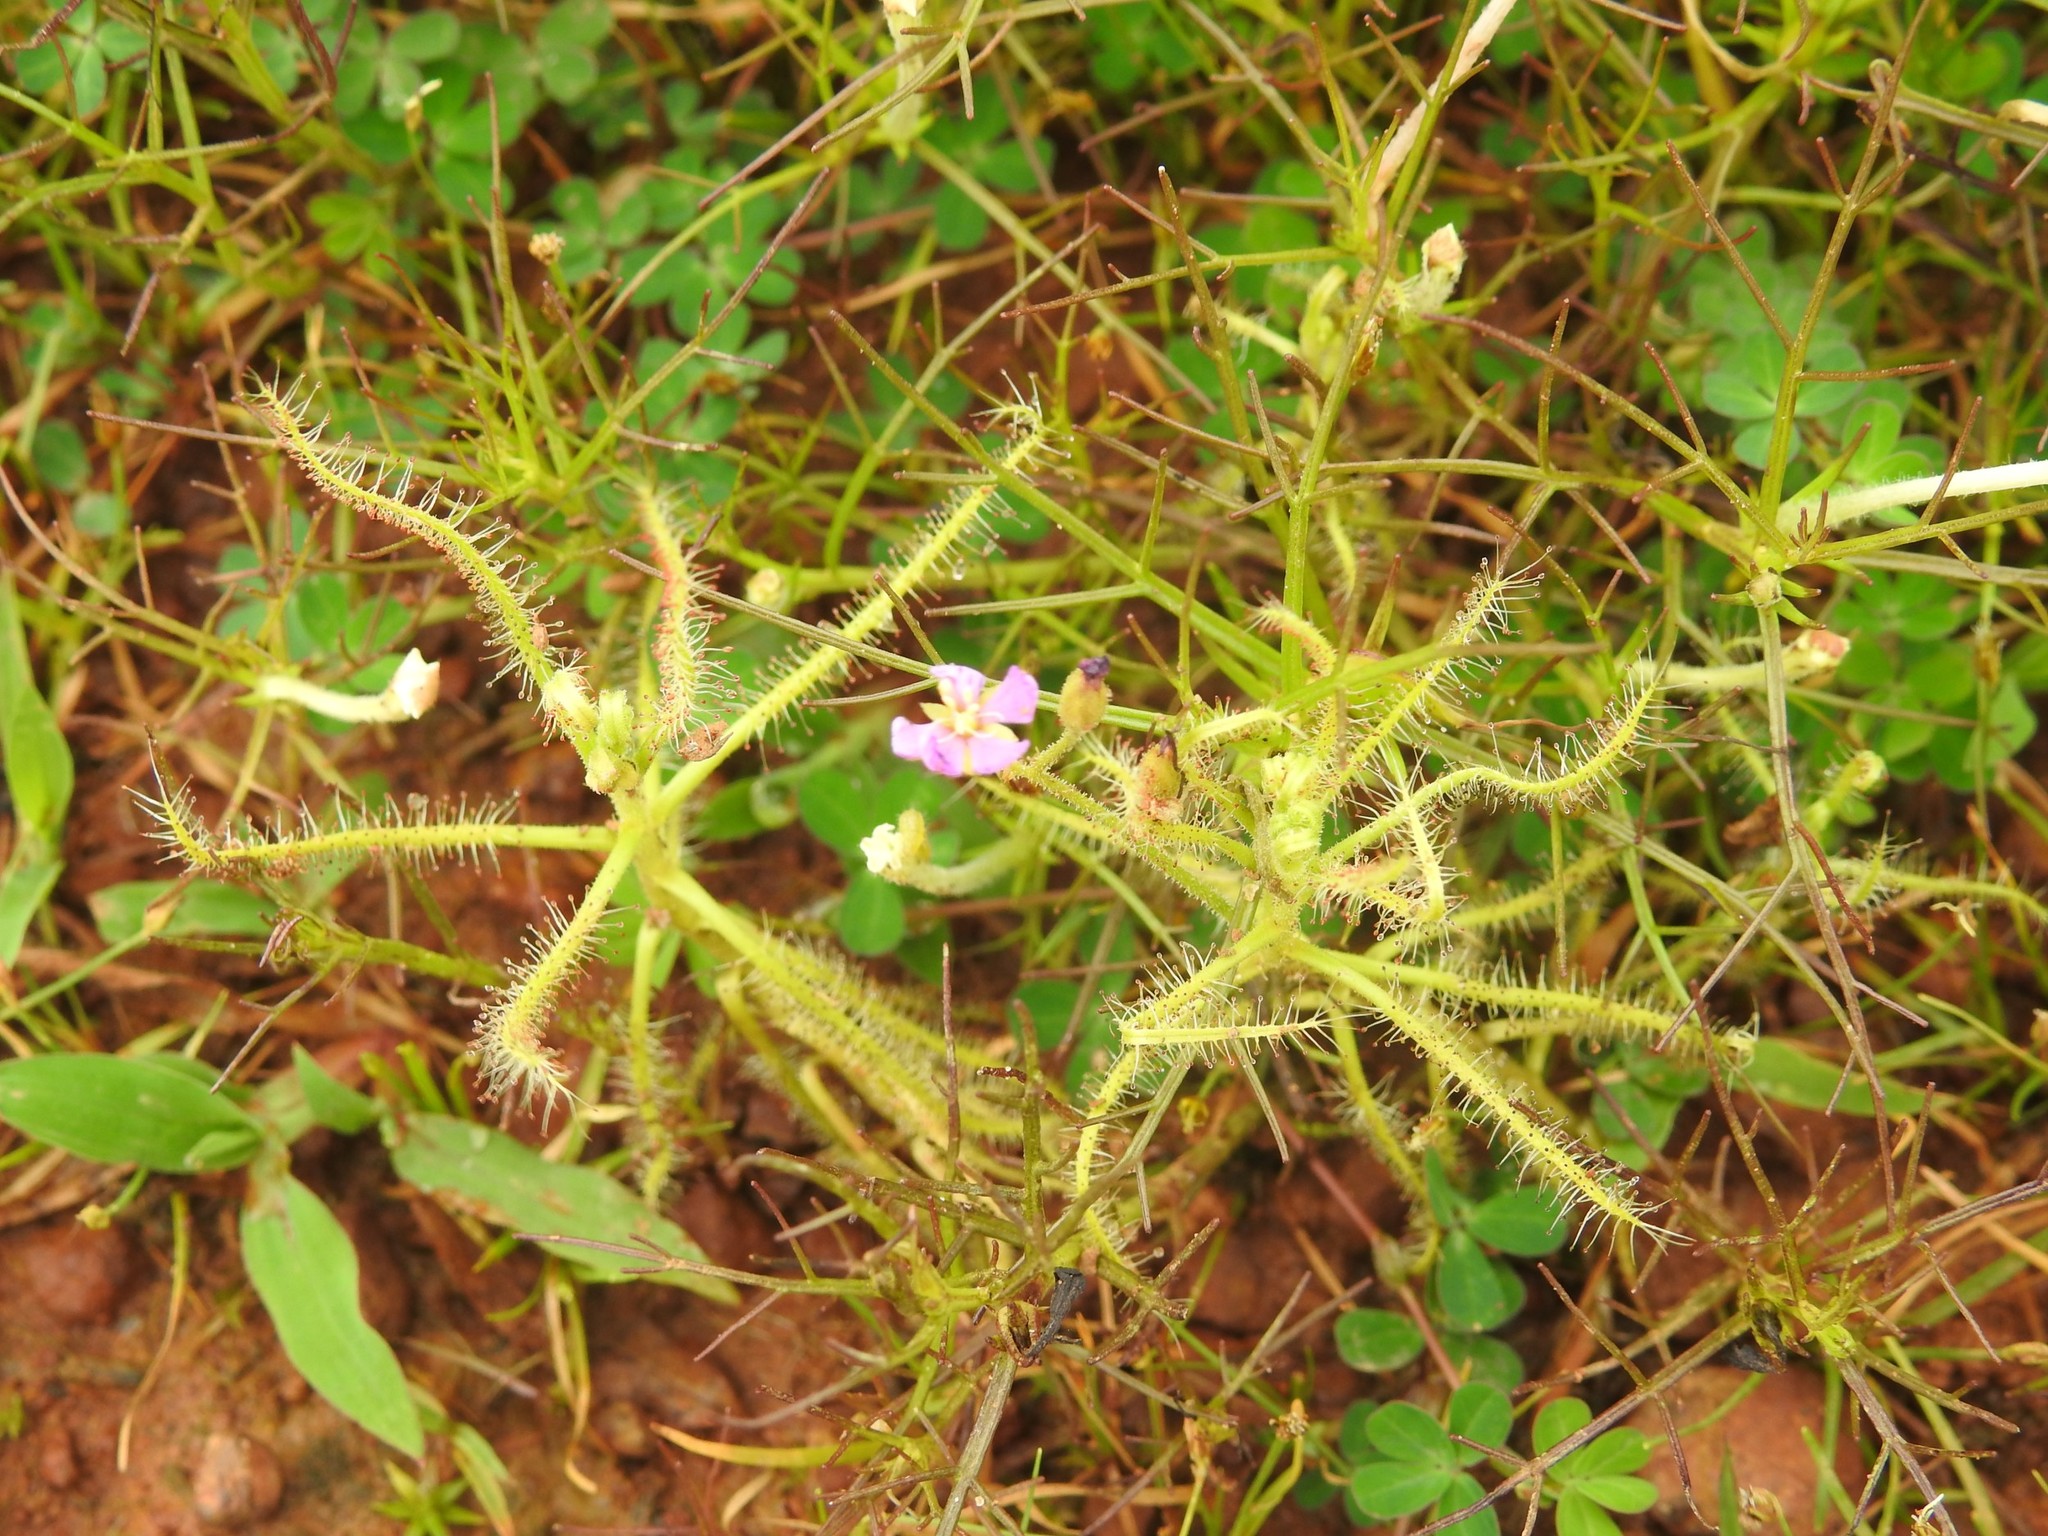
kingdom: Plantae
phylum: Tracheophyta
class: Magnoliopsida
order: Caryophyllales
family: Droseraceae
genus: Drosera
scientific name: Drosera indica
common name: Indian sundew
